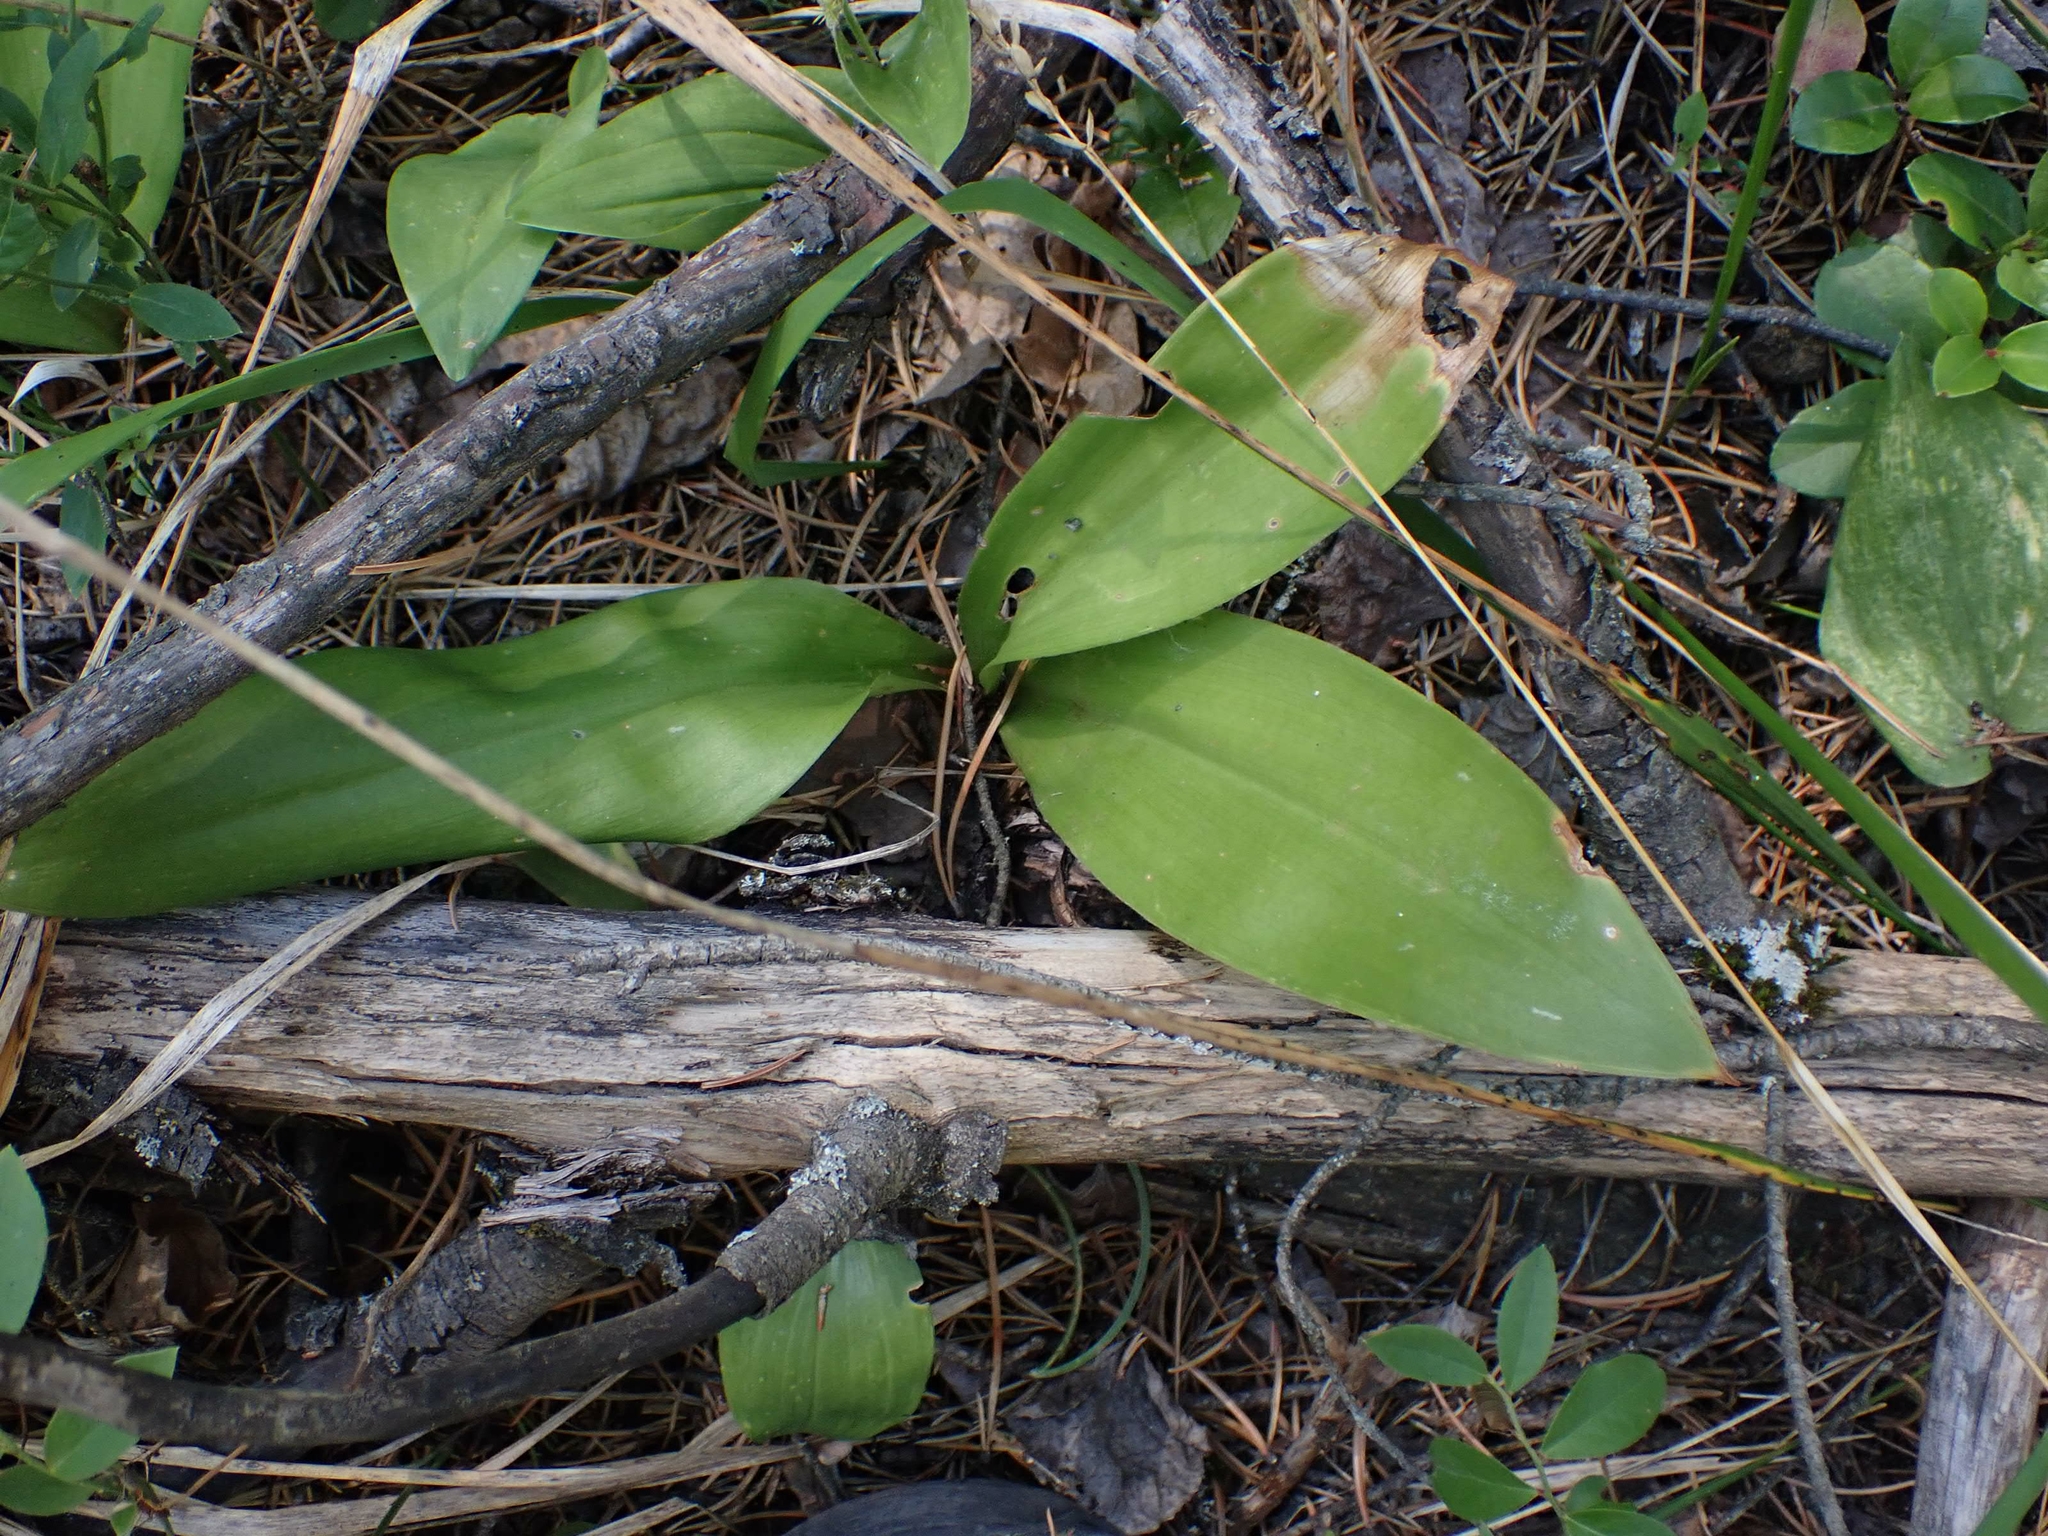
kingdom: Plantae
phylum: Tracheophyta
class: Liliopsida
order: Liliales
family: Liliaceae
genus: Clintonia
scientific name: Clintonia borealis
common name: Yellow clintonia
